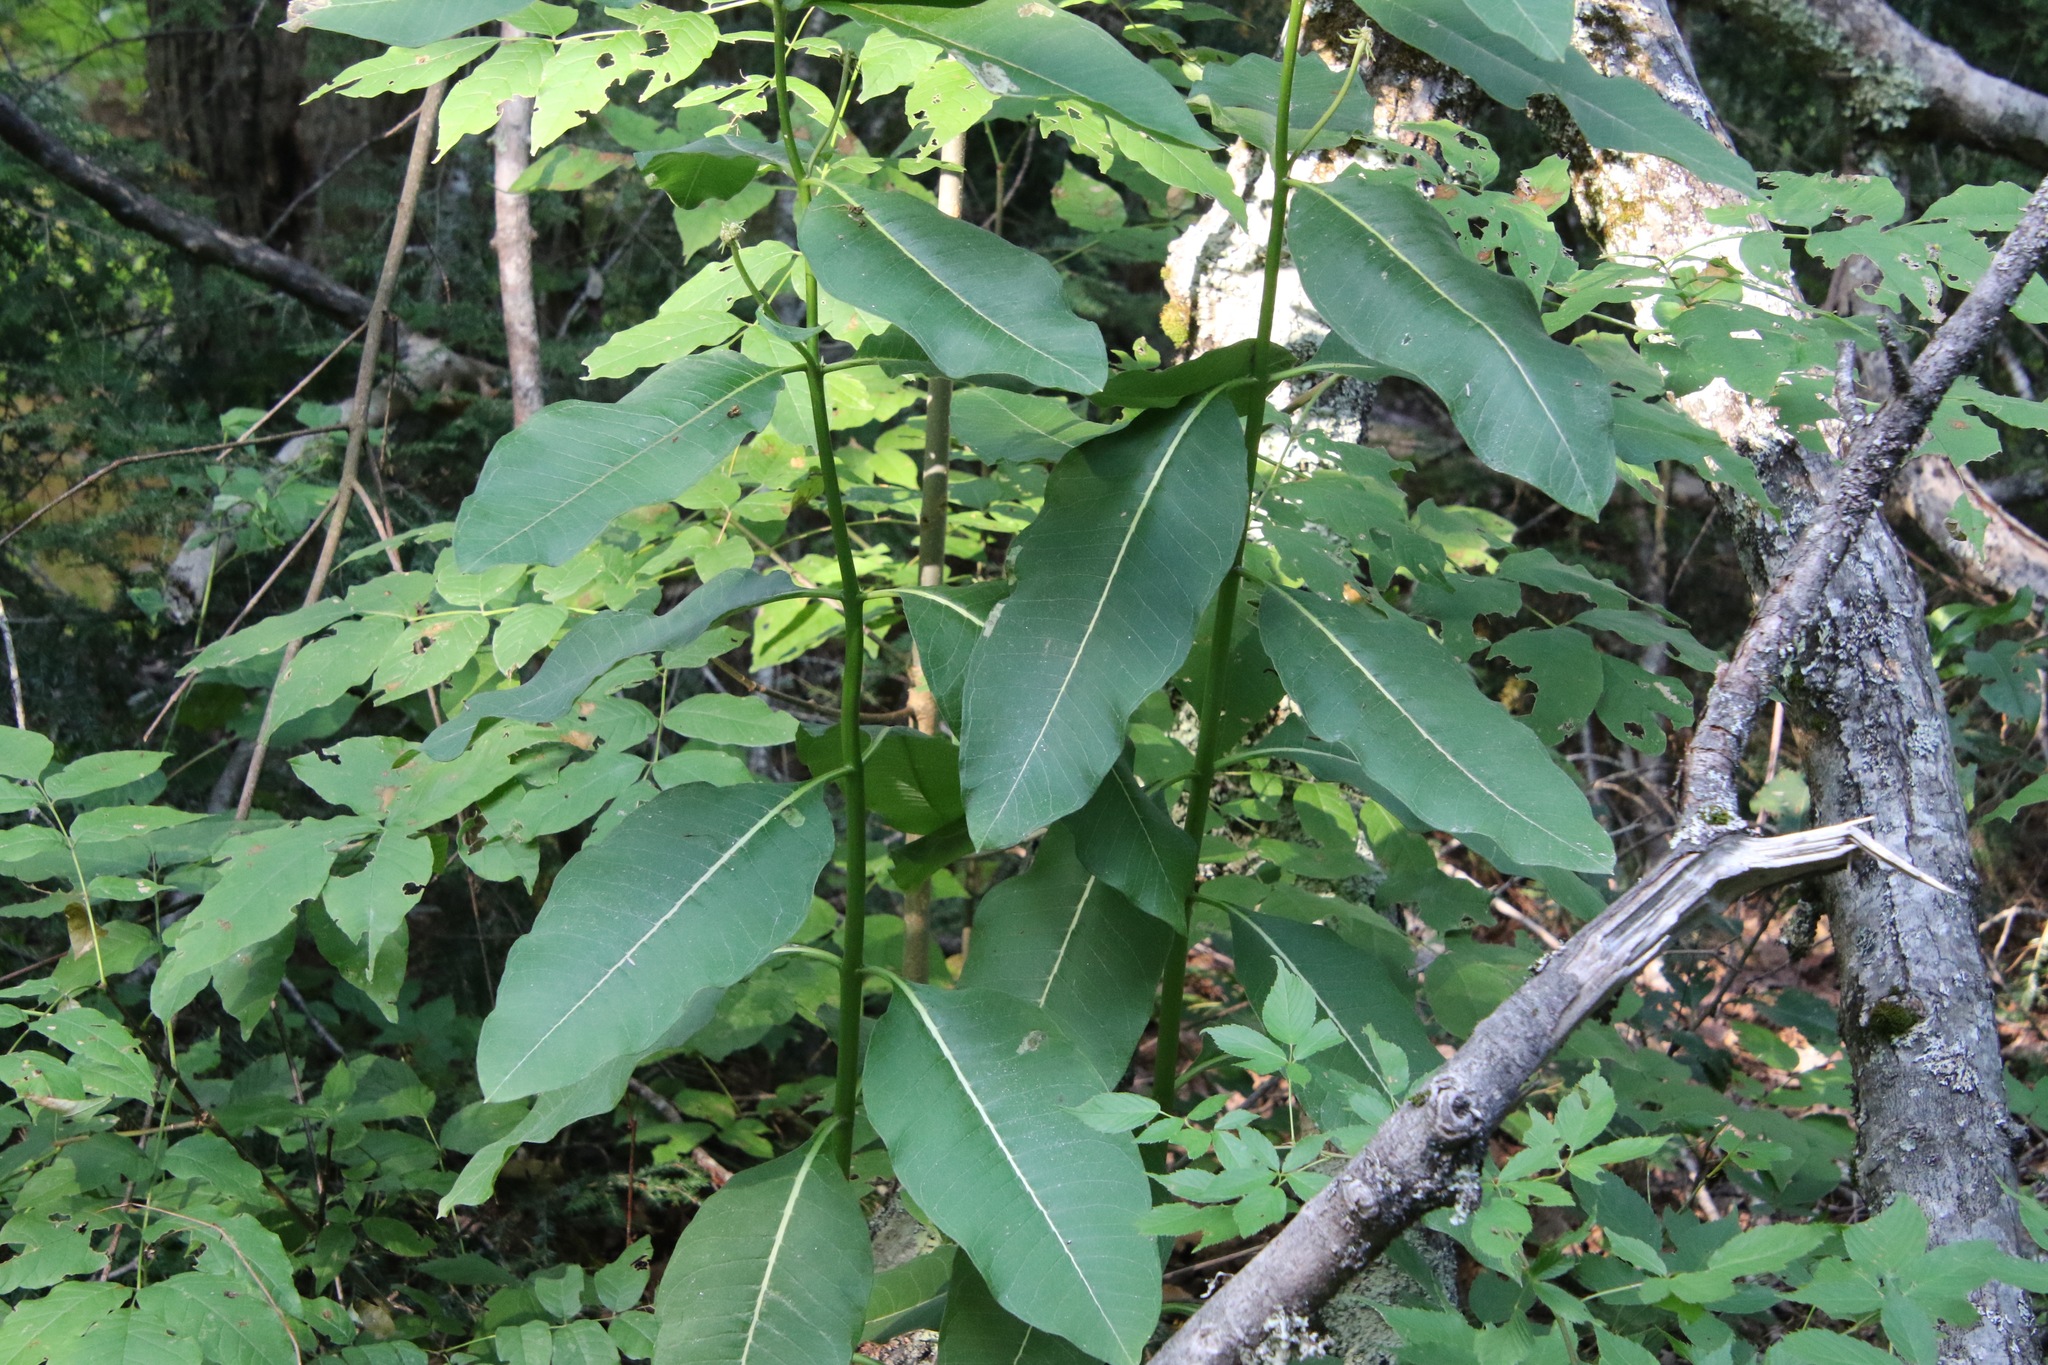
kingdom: Plantae
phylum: Tracheophyta
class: Magnoliopsida
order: Gentianales
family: Apocynaceae
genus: Asclepias
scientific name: Asclepias syriaca
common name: Common milkweed
